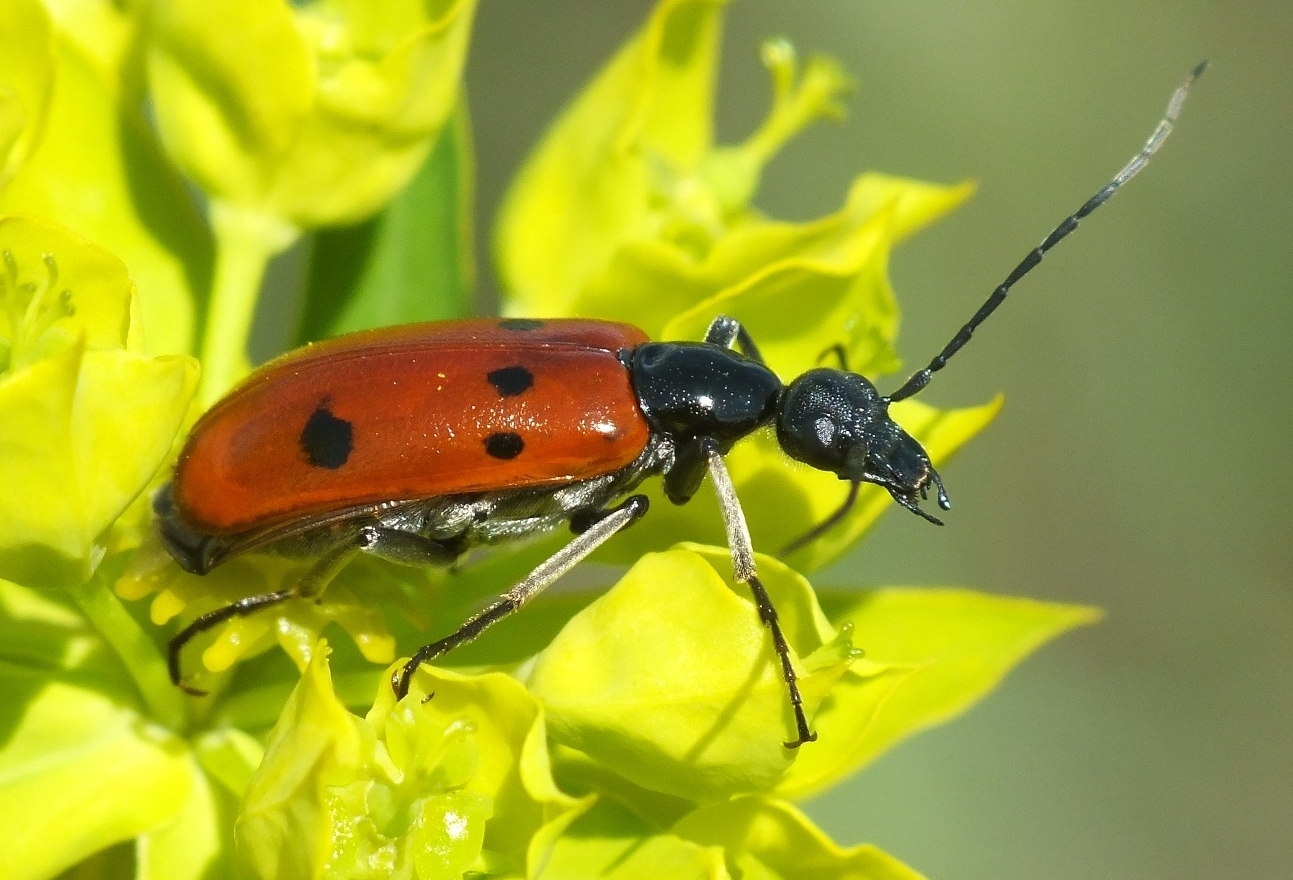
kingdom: Animalia
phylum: Arthropoda
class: Insecta
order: Coleoptera
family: Meloidae
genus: Stenodera
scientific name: Stenodera caucasica
